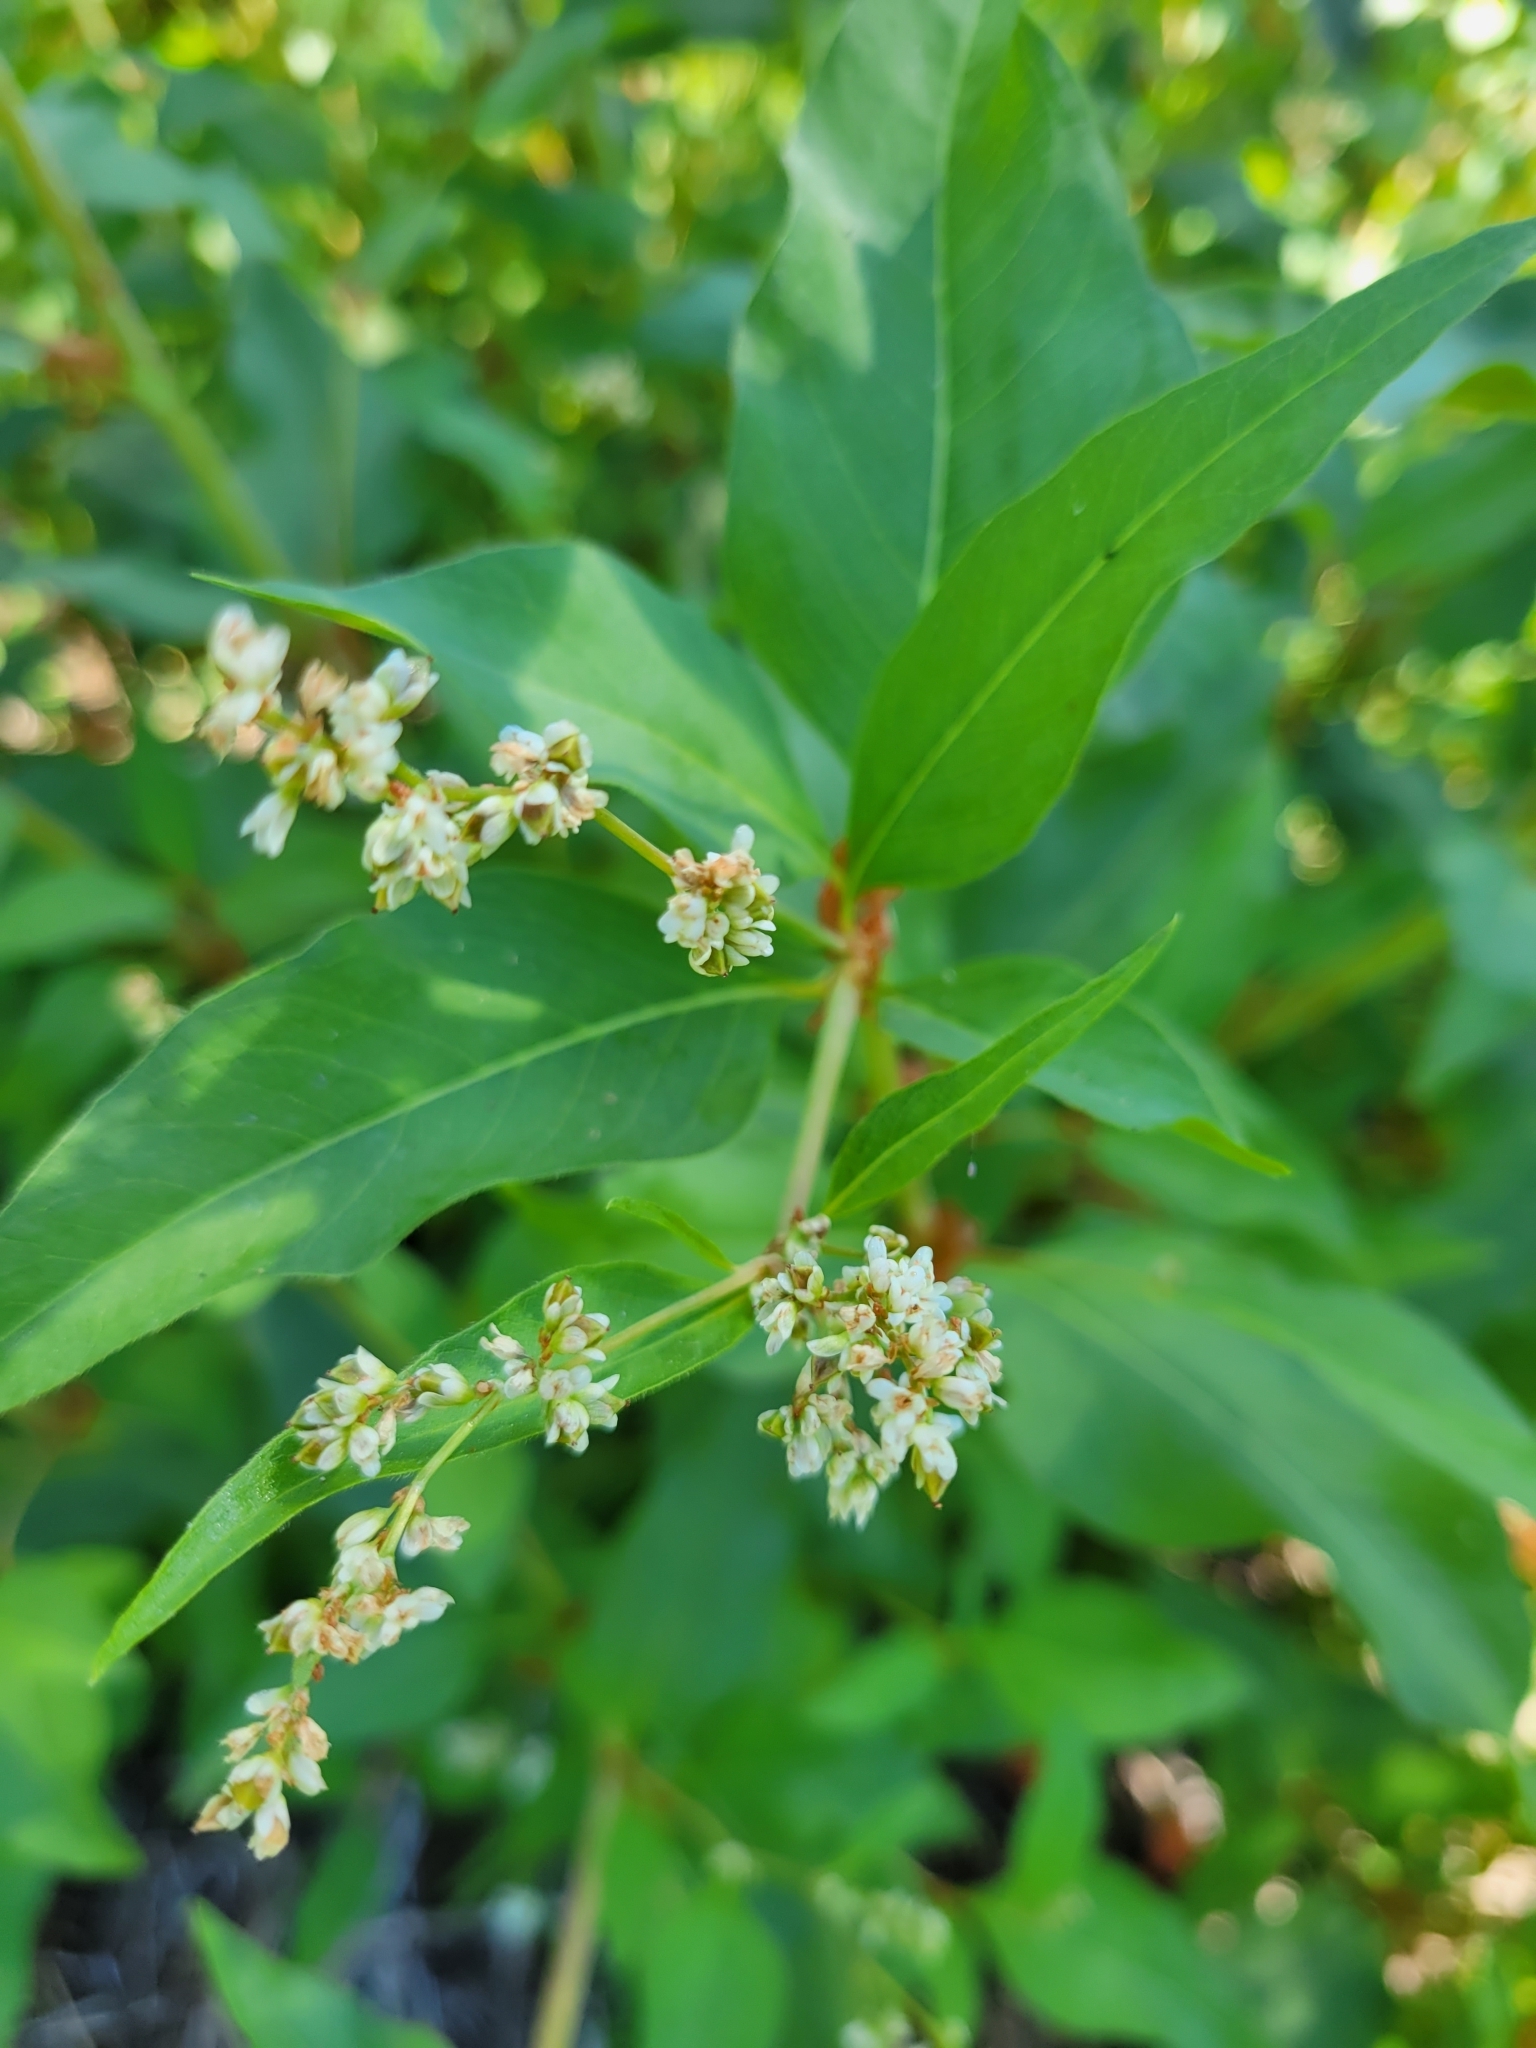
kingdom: Plantae
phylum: Tracheophyta
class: Magnoliopsida
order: Caryophyllales
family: Polygonaceae
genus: Koenigia
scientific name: Koenigia phytolaccifolia
